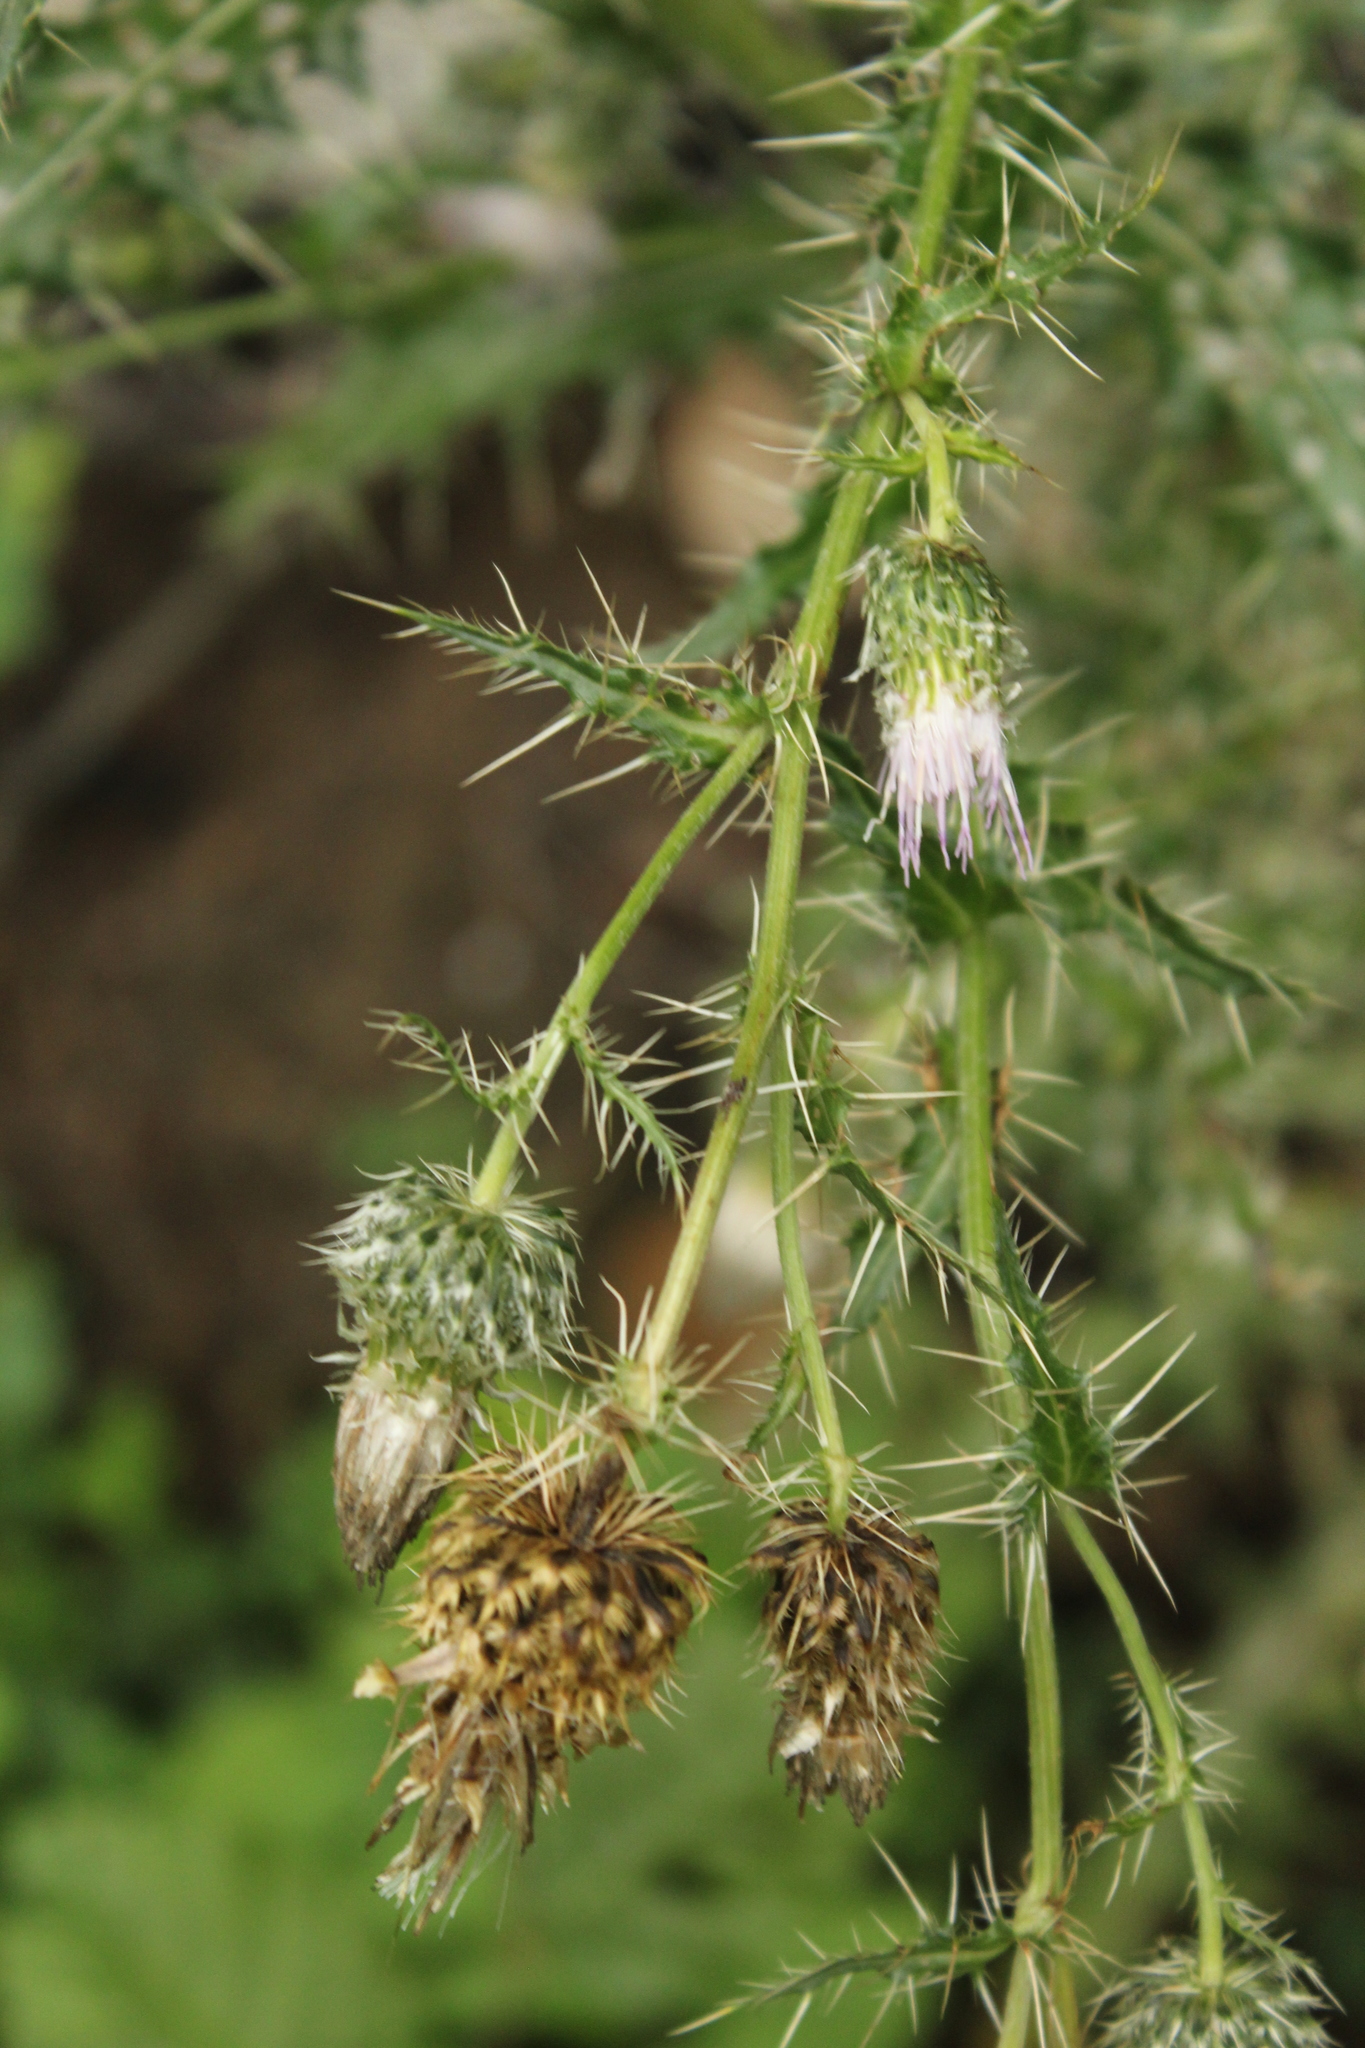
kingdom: Plantae
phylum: Tracheophyta
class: Magnoliopsida
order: Asterales
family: Asteraceae
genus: Cirsium
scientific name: Cirsium echinus
